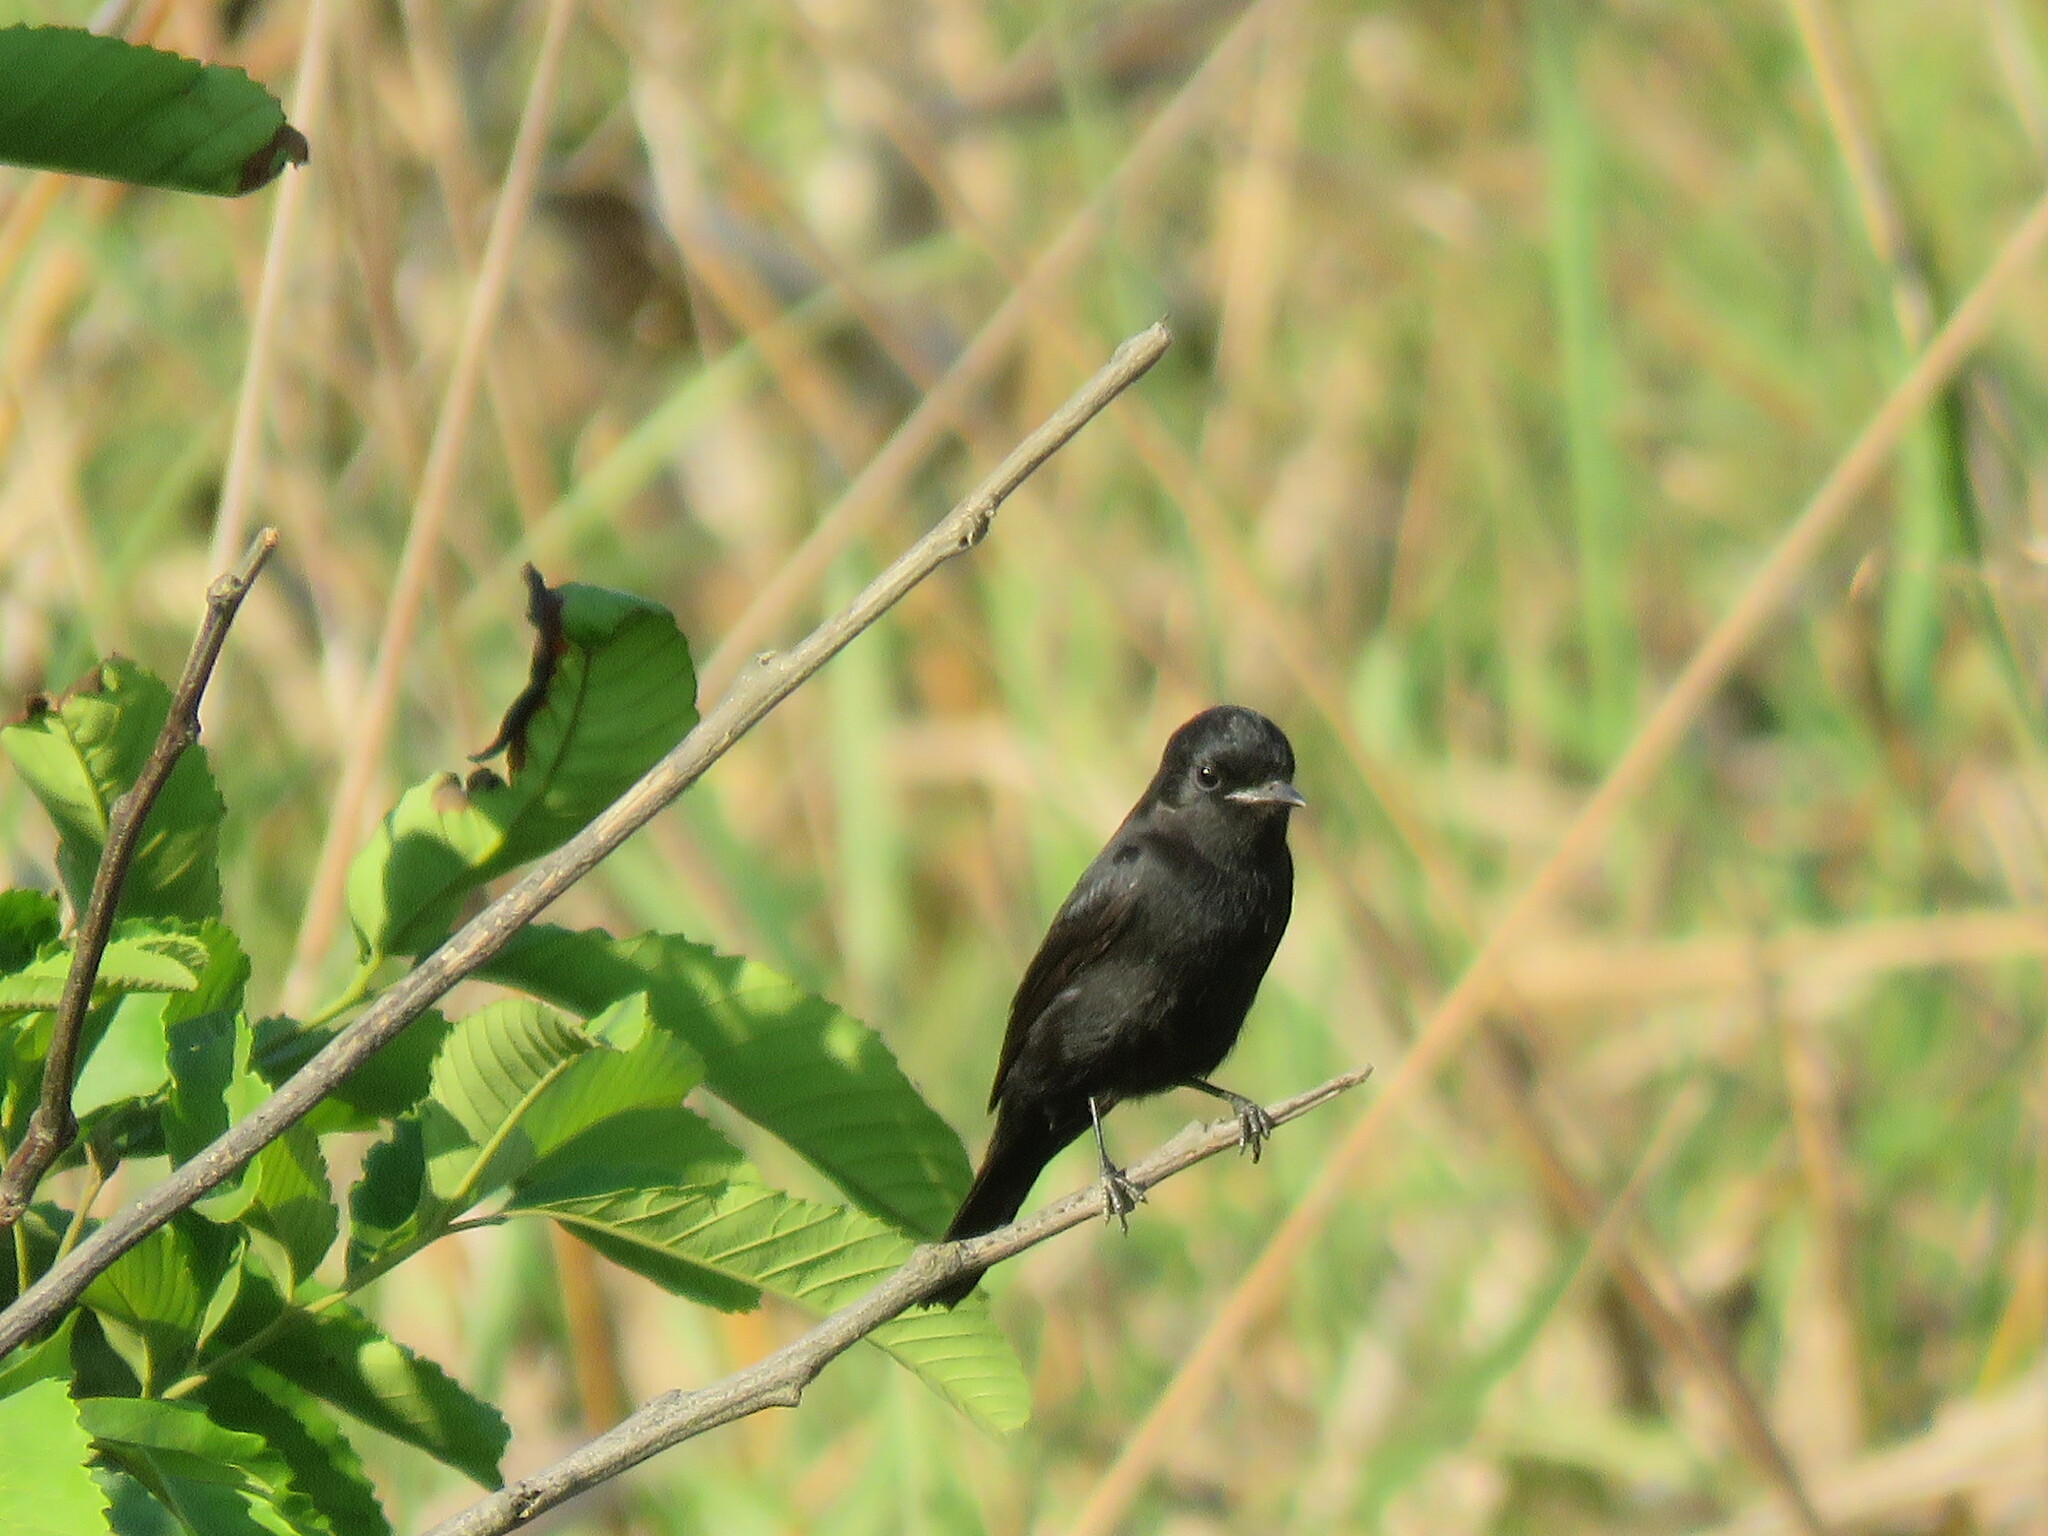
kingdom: Animalia
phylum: Chordata
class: Aves
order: Passeriformes
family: Tyrannidae
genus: Knipolegus
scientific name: Knipolegus hudsoni
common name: Hudson's black tyrant
